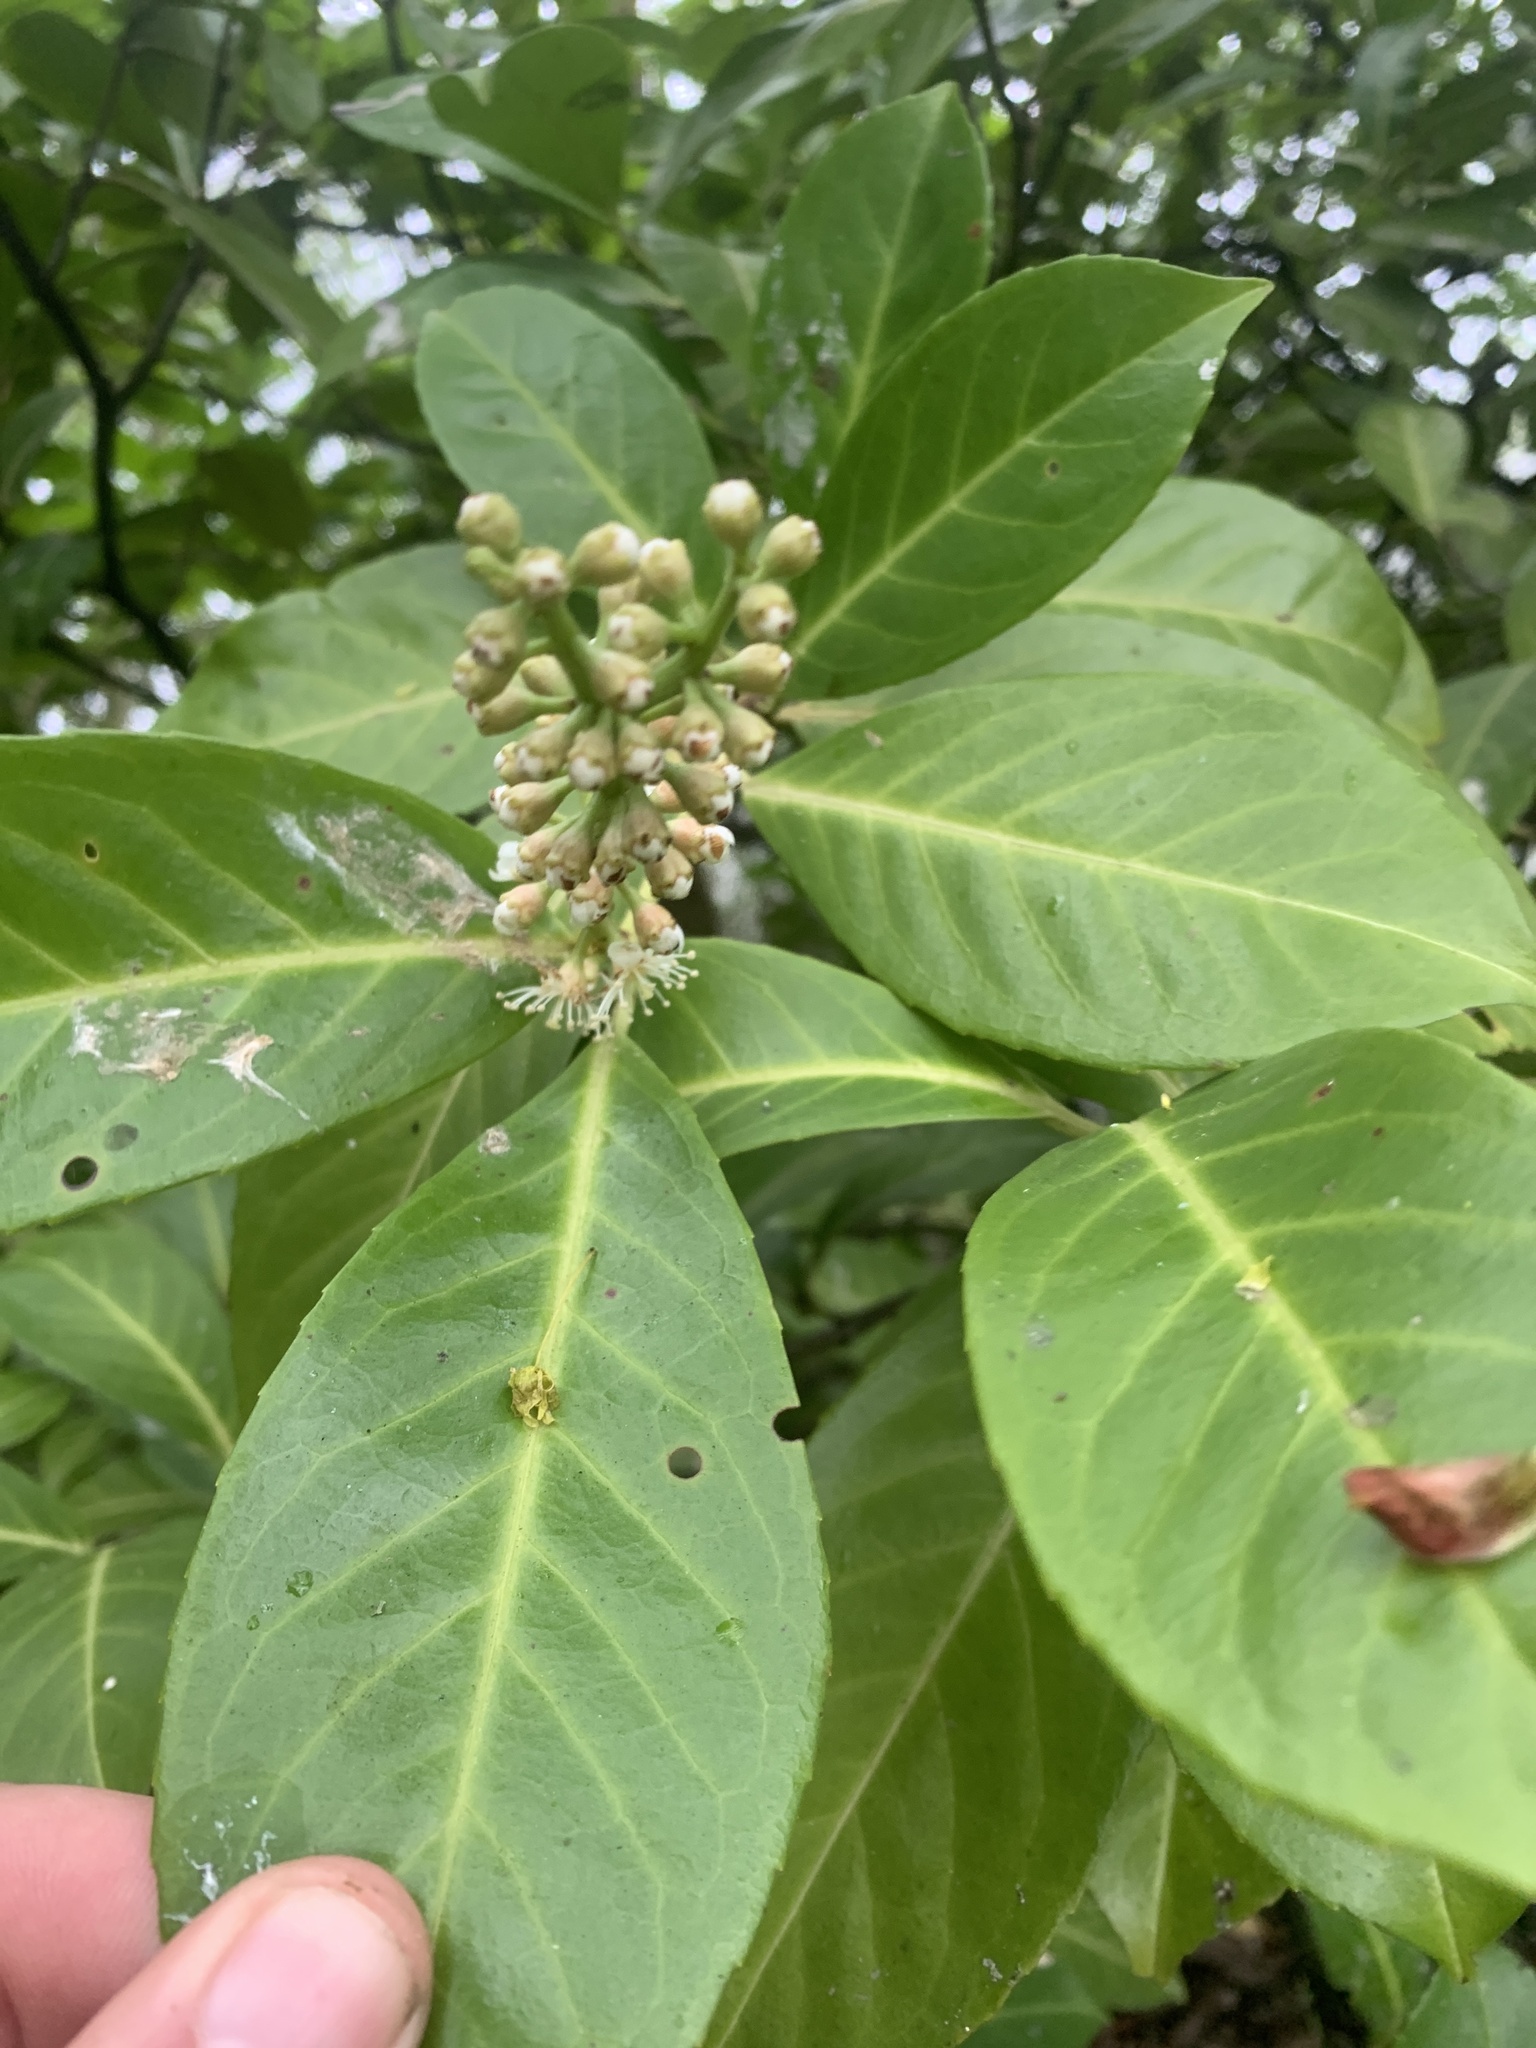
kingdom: Plantae
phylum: Tracheophyta
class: Magnoliopsida
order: Rosales
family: Rosaceae
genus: Prunus
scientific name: Prunus laurocerasus
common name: Cherry laurel
